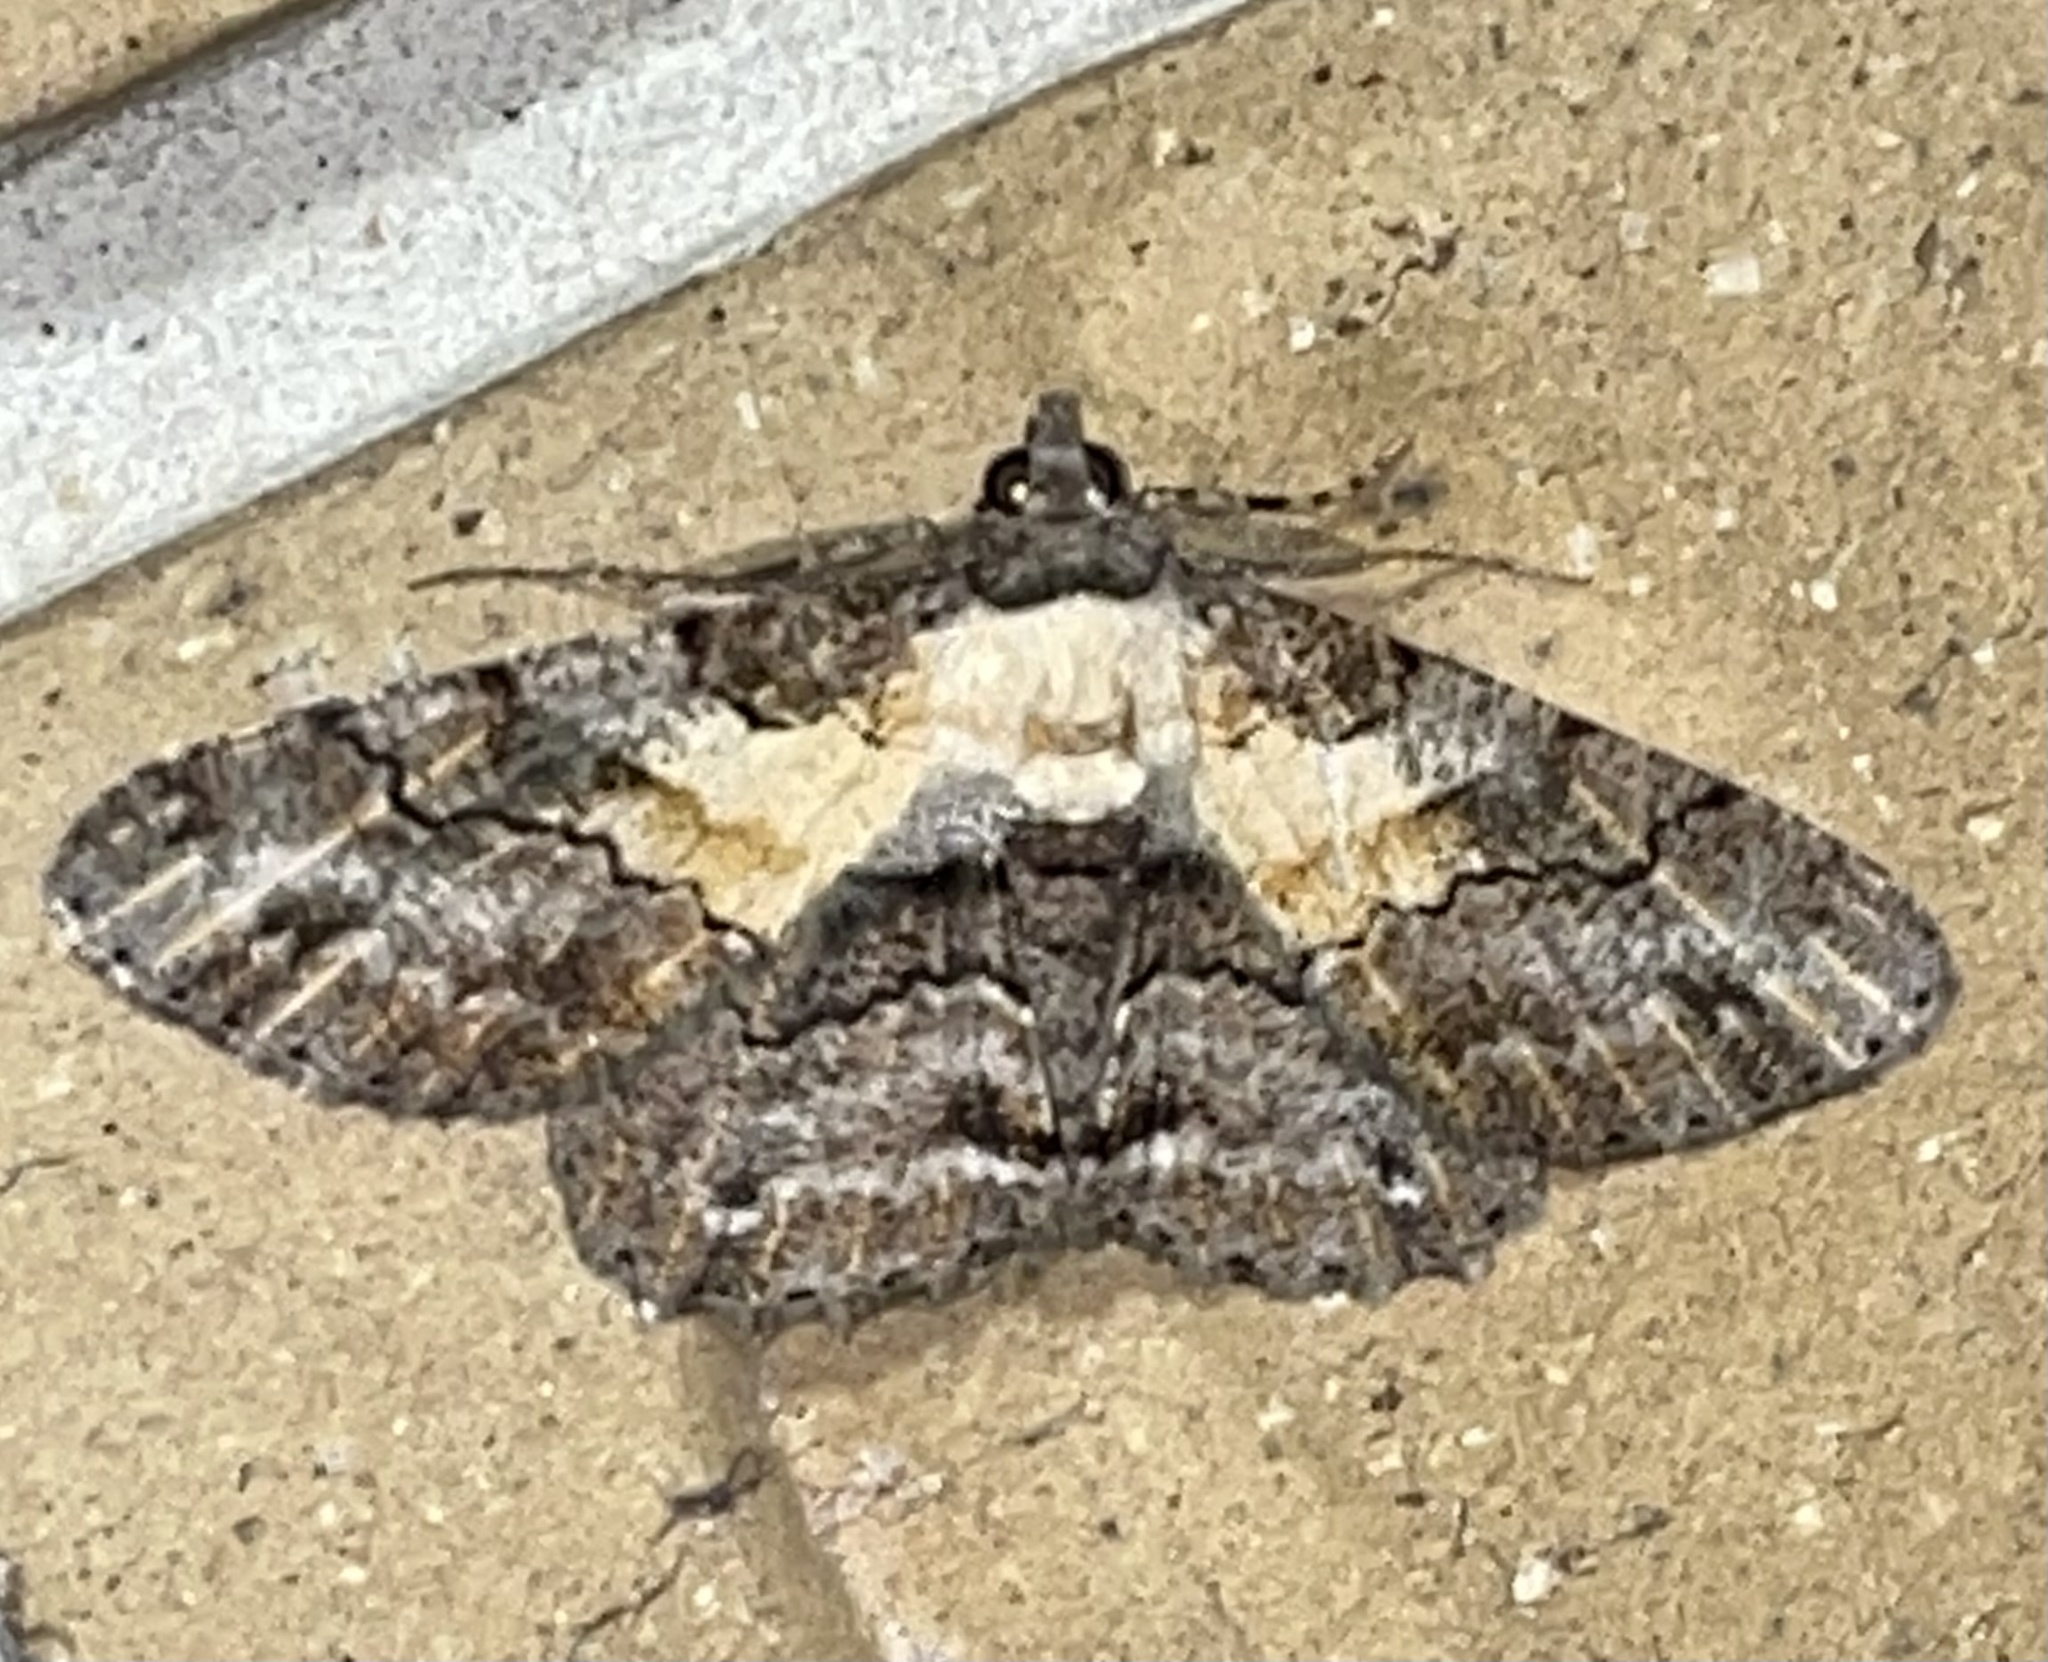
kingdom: Animalia
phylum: Arthropoda
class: Insecta
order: Lepidoptera
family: Geometridae
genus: Cleora
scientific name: Cleora repetita
